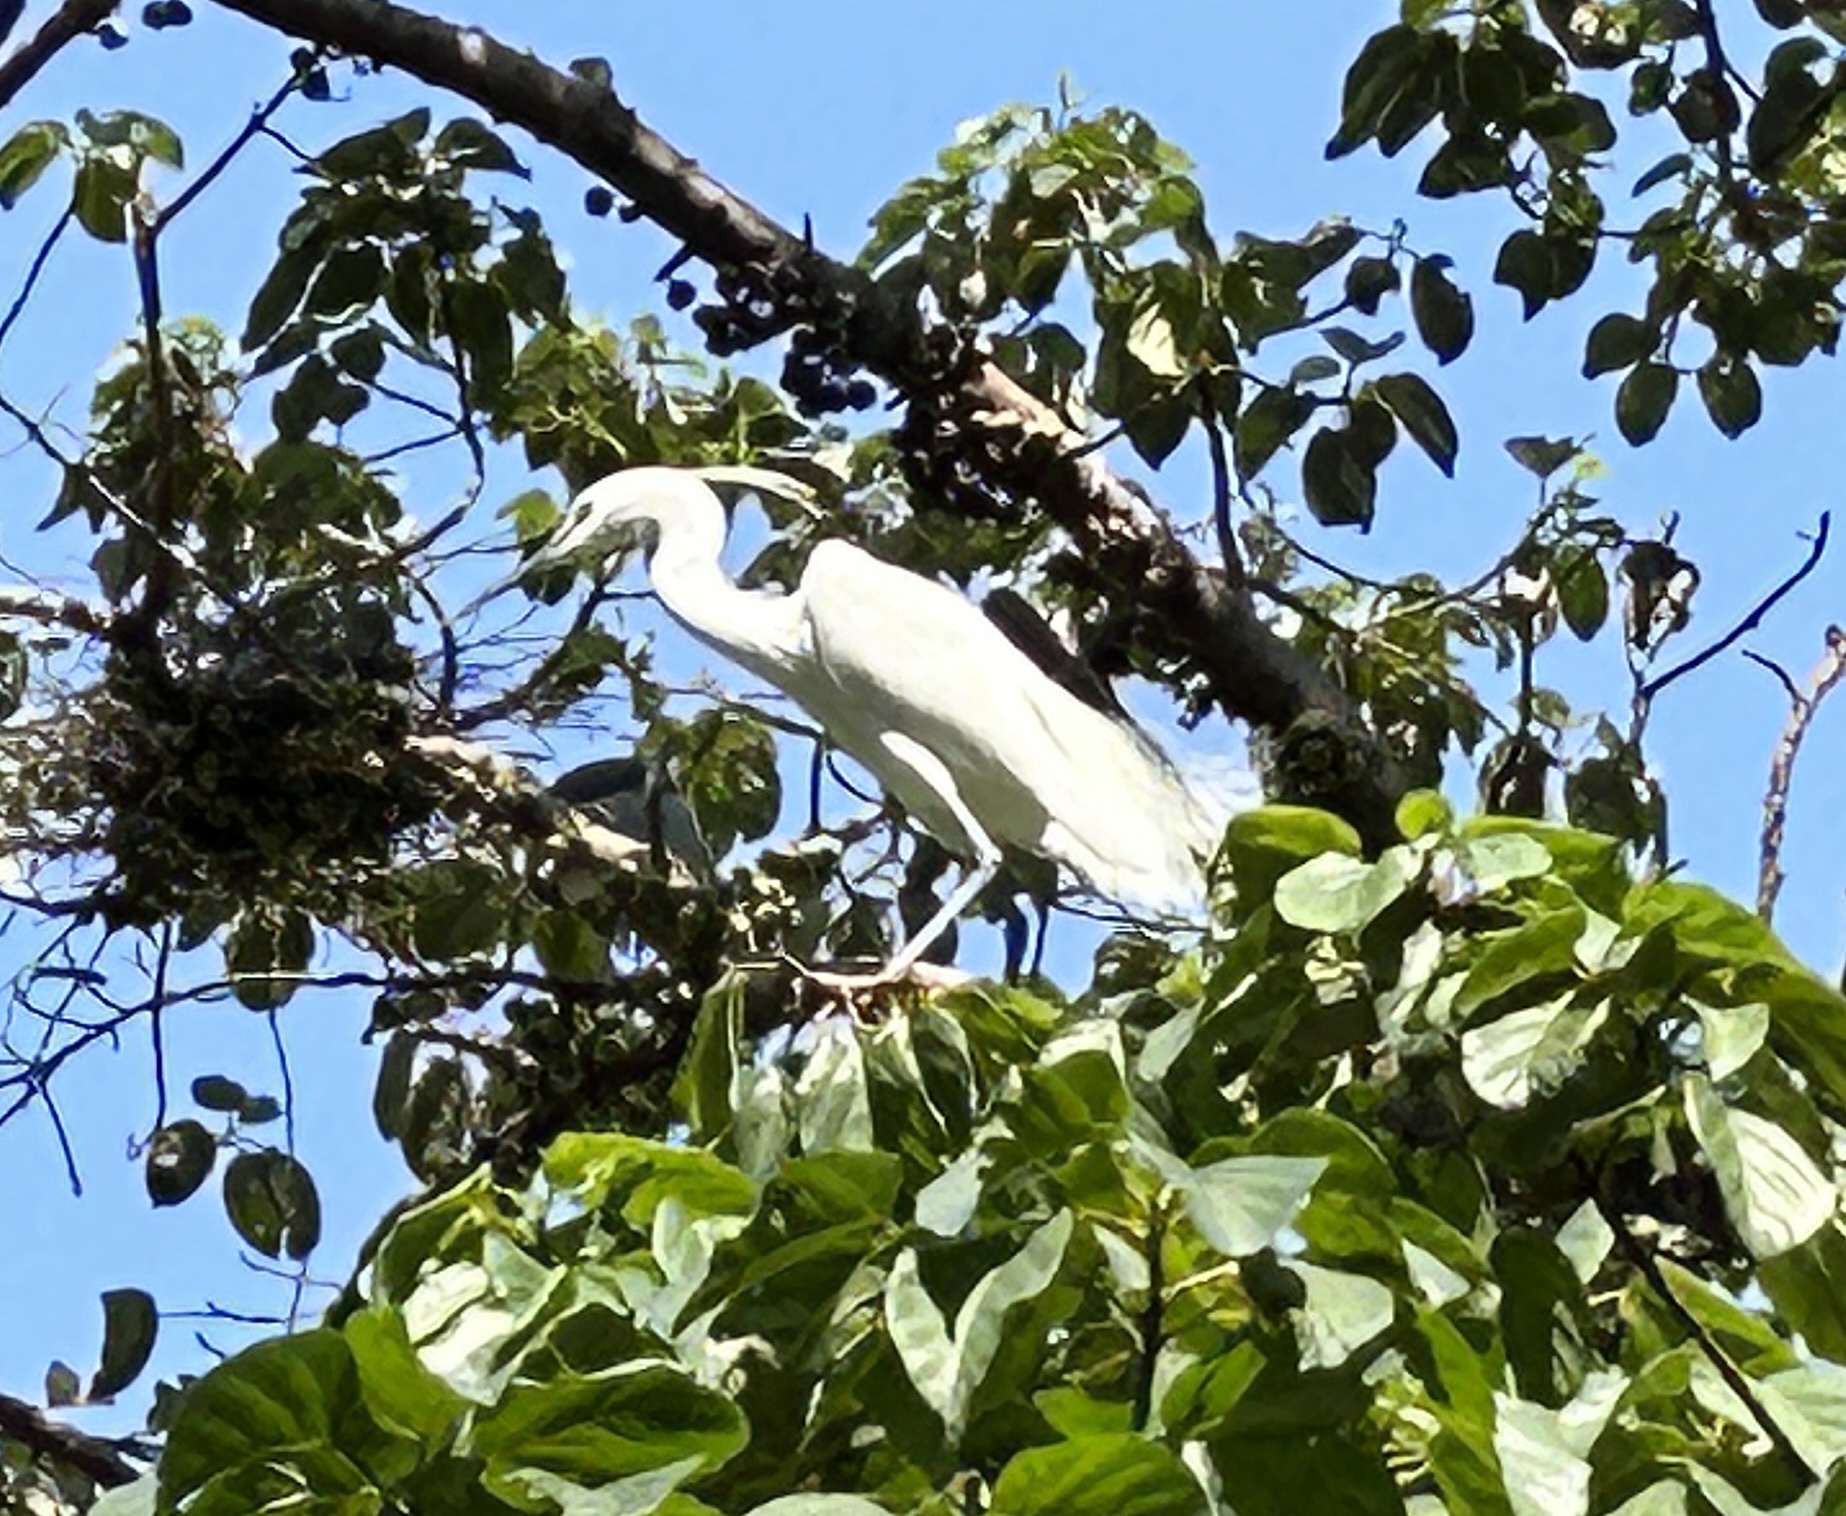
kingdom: Animalia
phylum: Chordata
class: Aves
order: Pelecaniformes
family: Ardeidae
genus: Egretta
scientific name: Egretta garzetta
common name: Little egret
